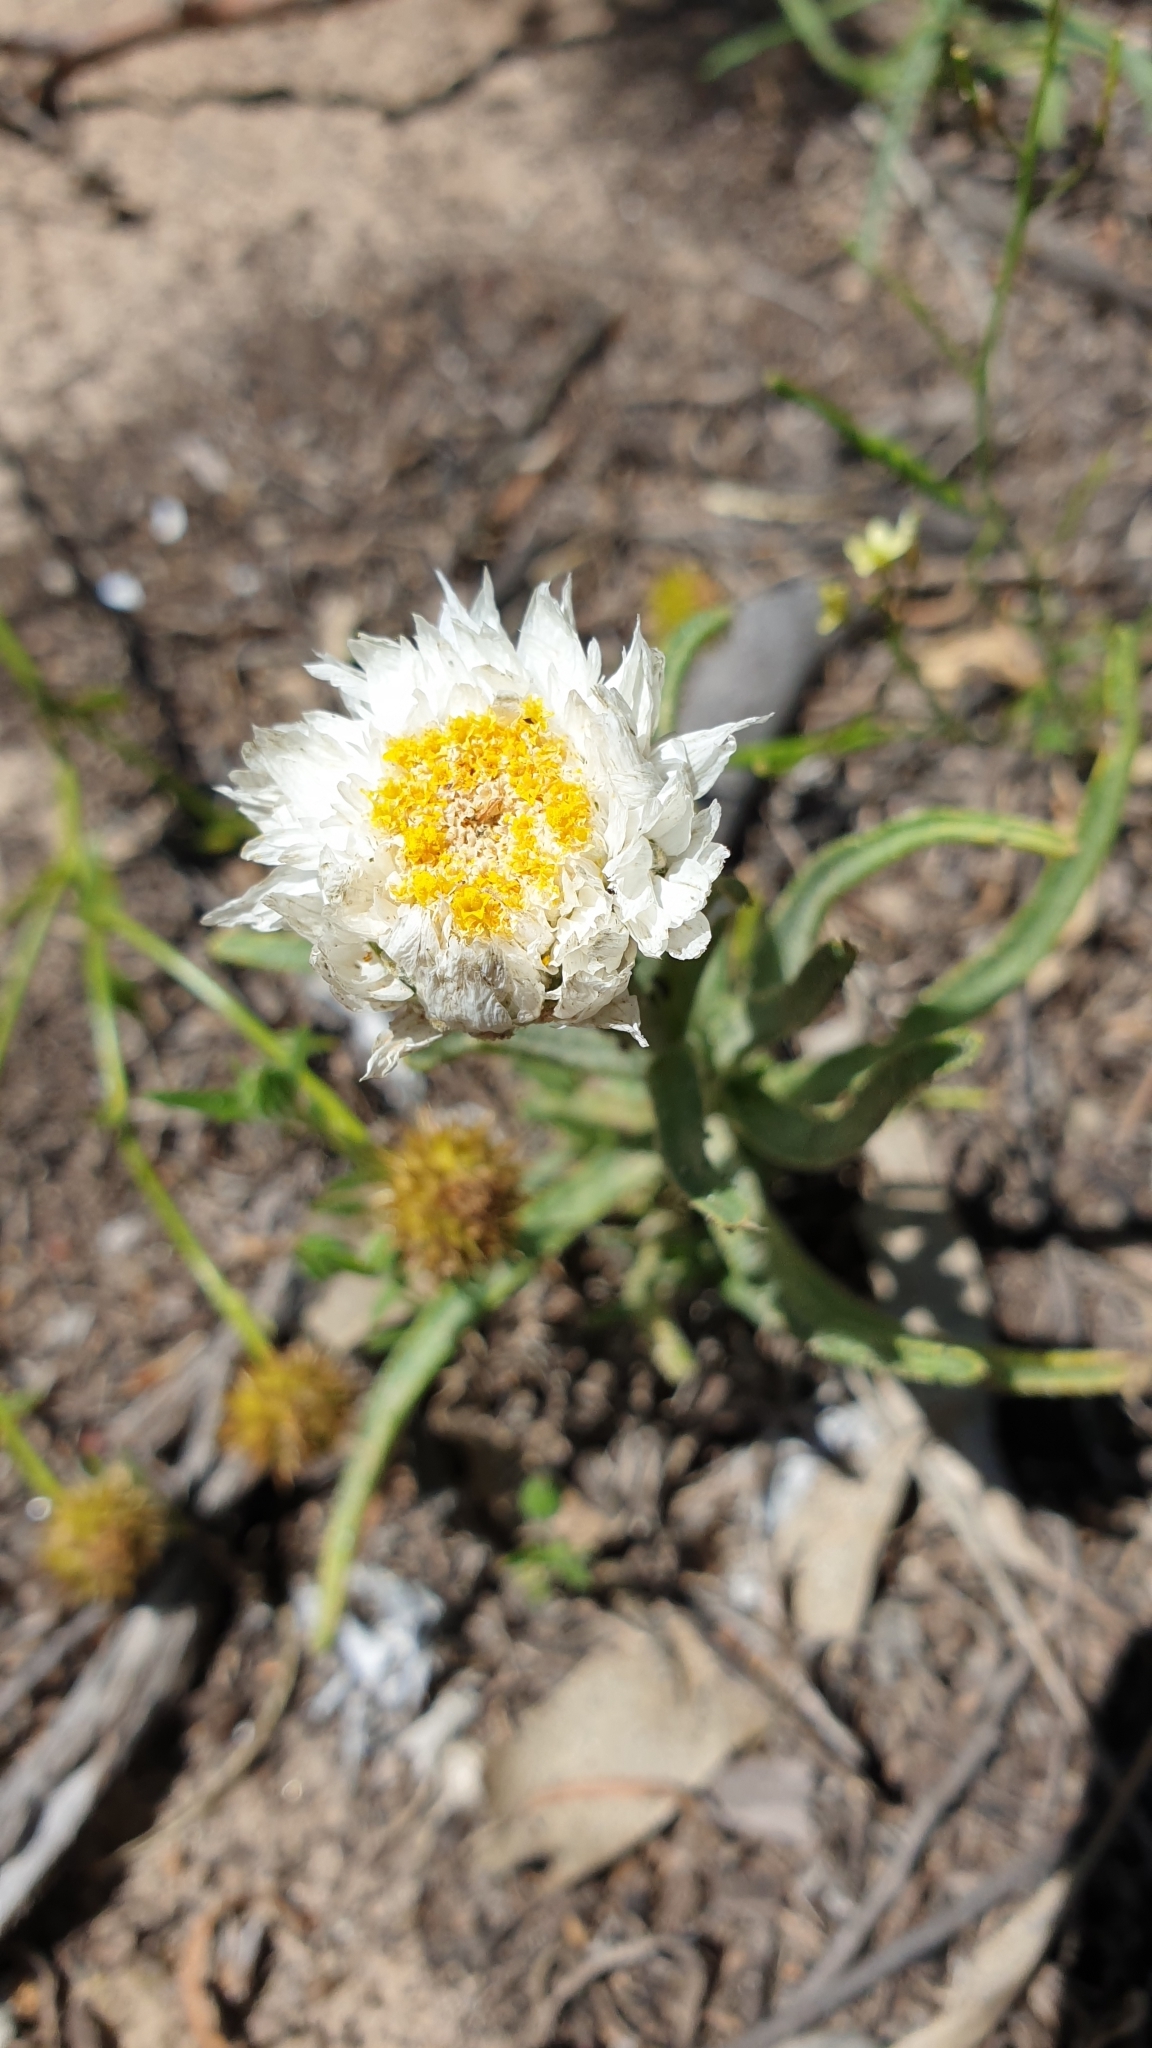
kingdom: Plantae
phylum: Tracheophyta
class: Magnoliopsida
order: Asterales
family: Asteraceae
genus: Polycalymma
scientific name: Polycalymma stuartii
